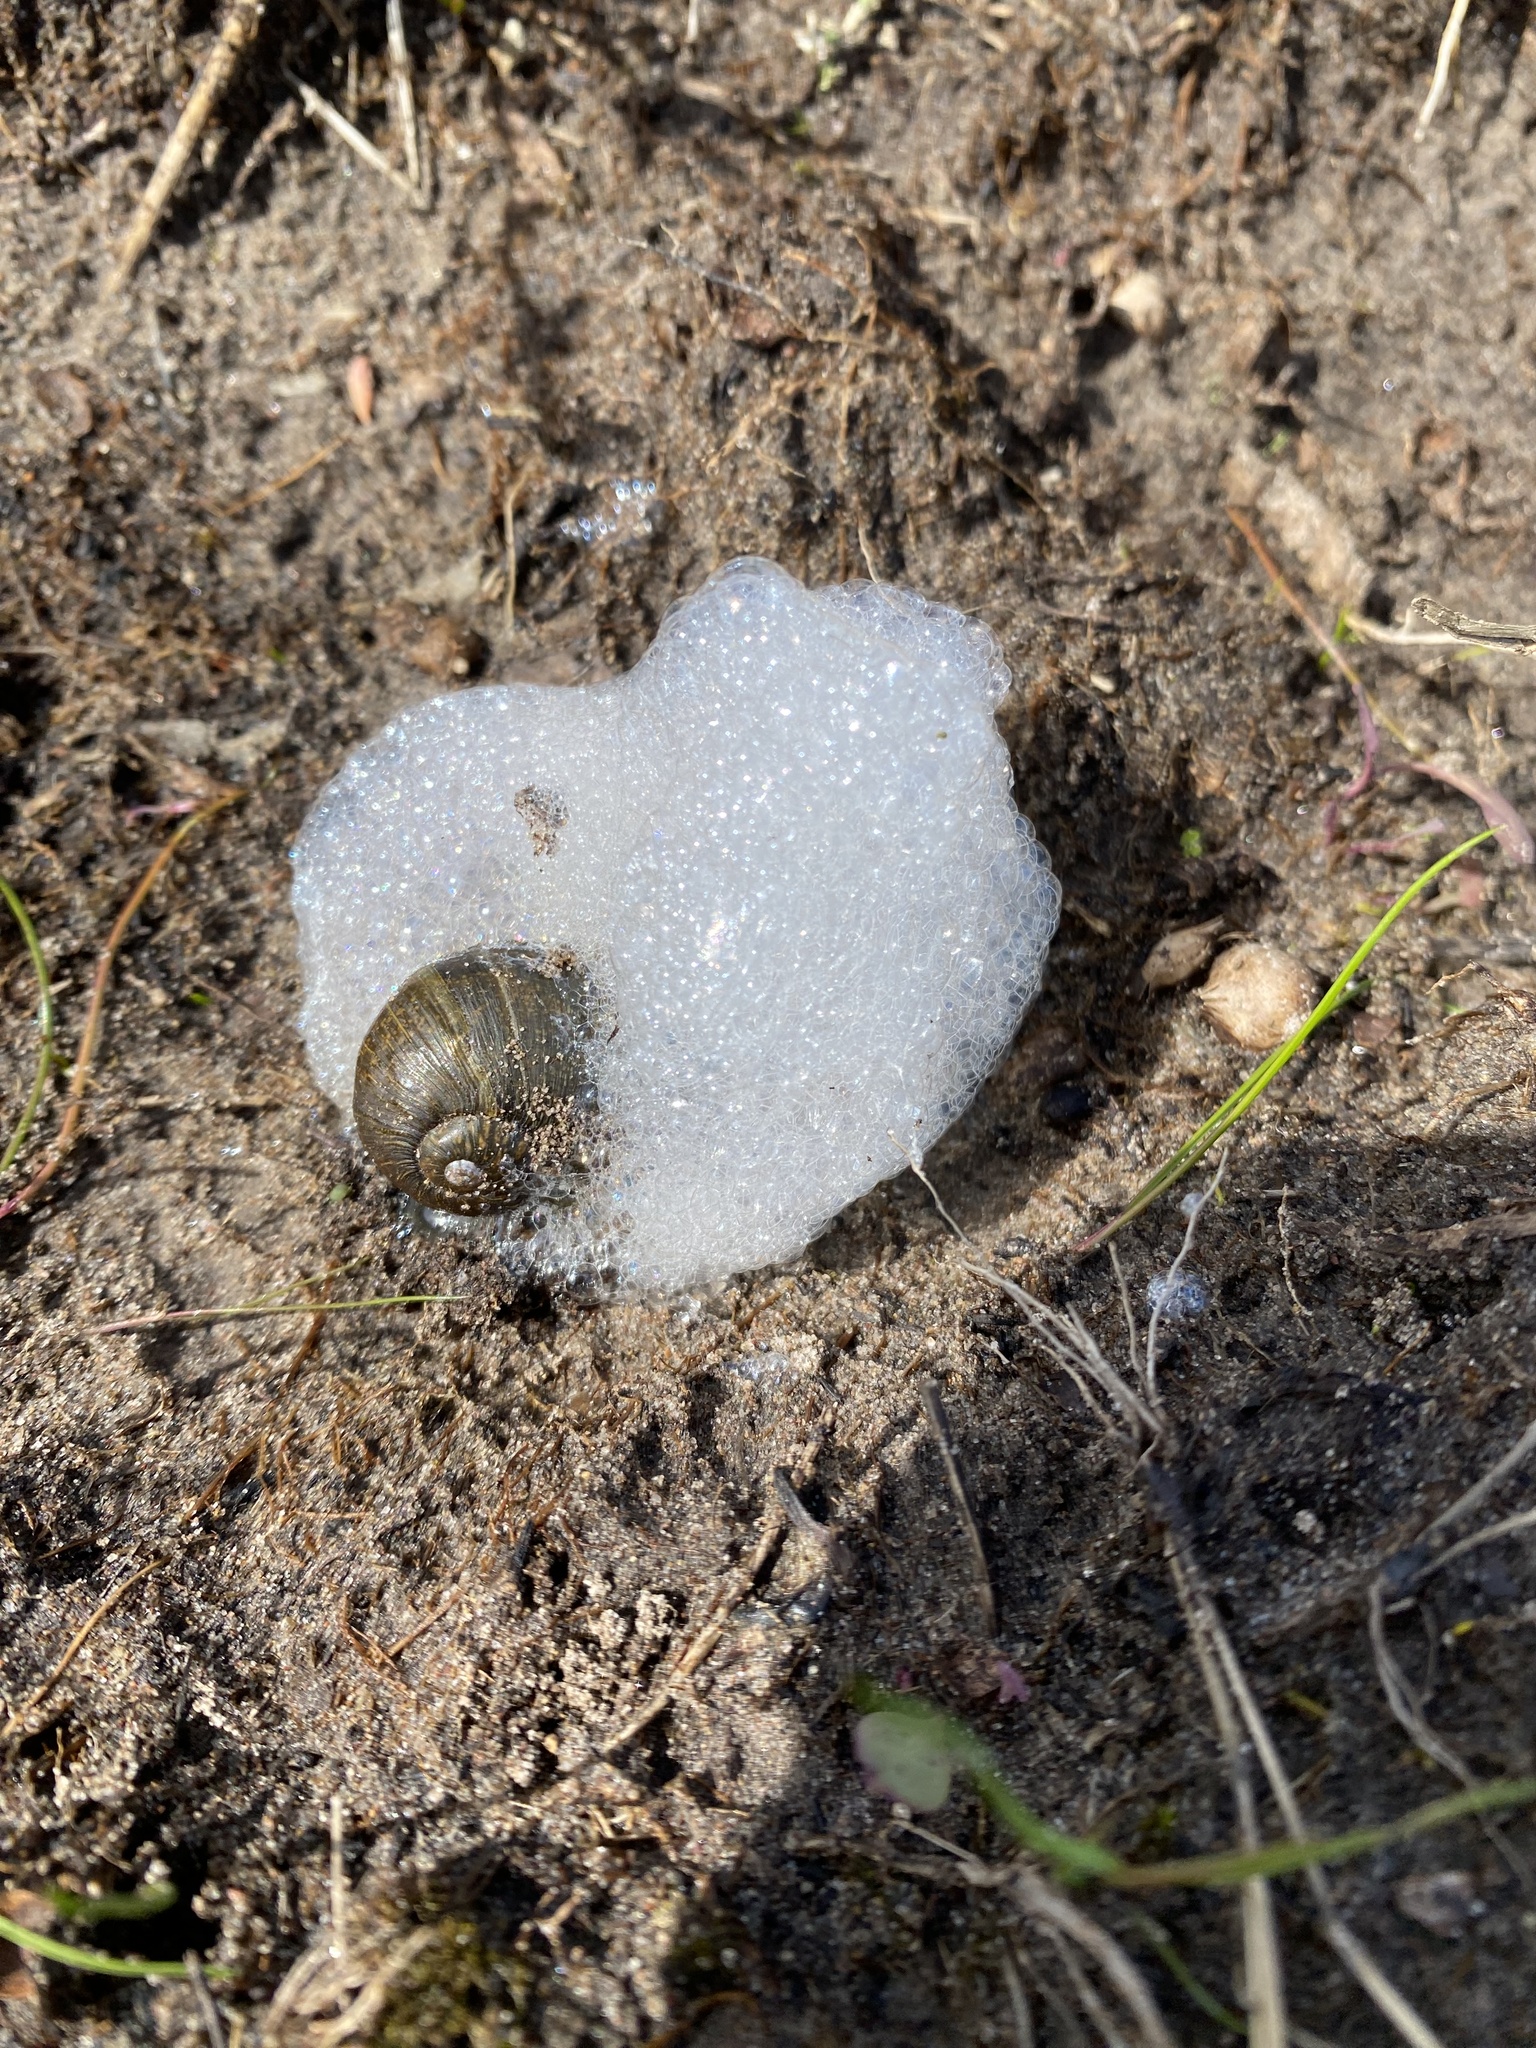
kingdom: Animalia
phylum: Mollusca
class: Gastropoda
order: Stylommatophora
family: Helicidae
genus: Cantareus
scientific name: Cantareus apertus
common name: Green gardensnail
